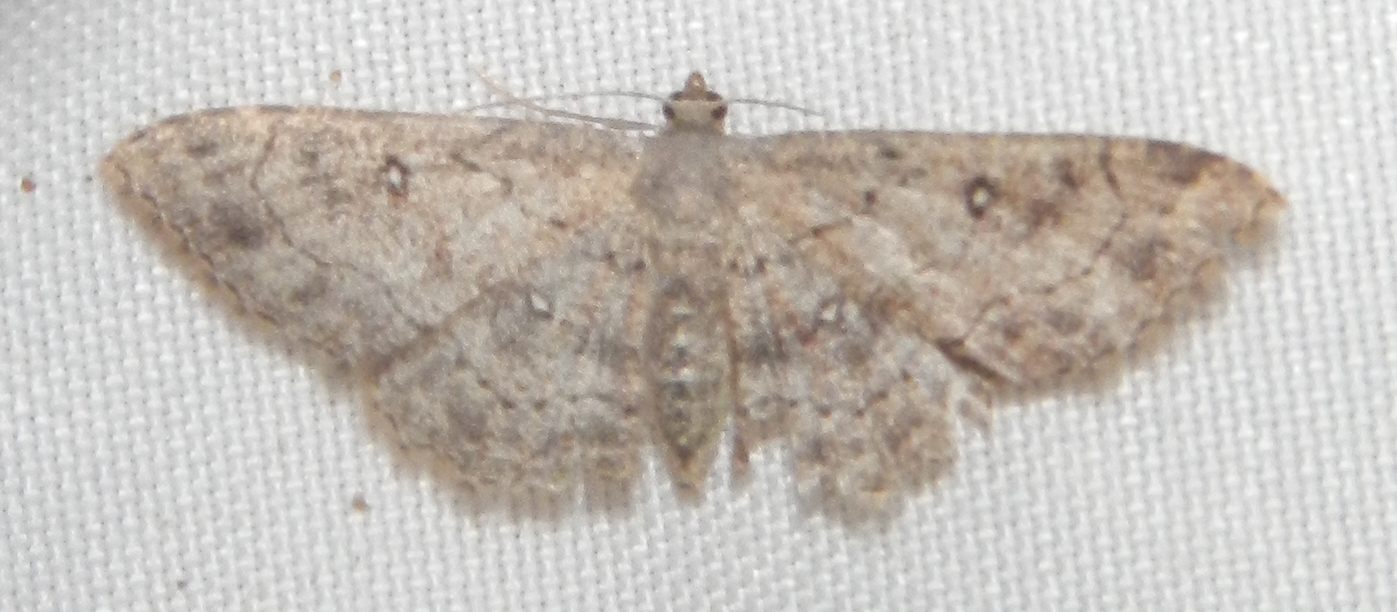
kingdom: Animalia
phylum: Arthropoda
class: Insecta
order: Lepidoptera
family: Geometridae
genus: Cyclophora
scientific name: Cyclophora nanaria
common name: Cankerworm
